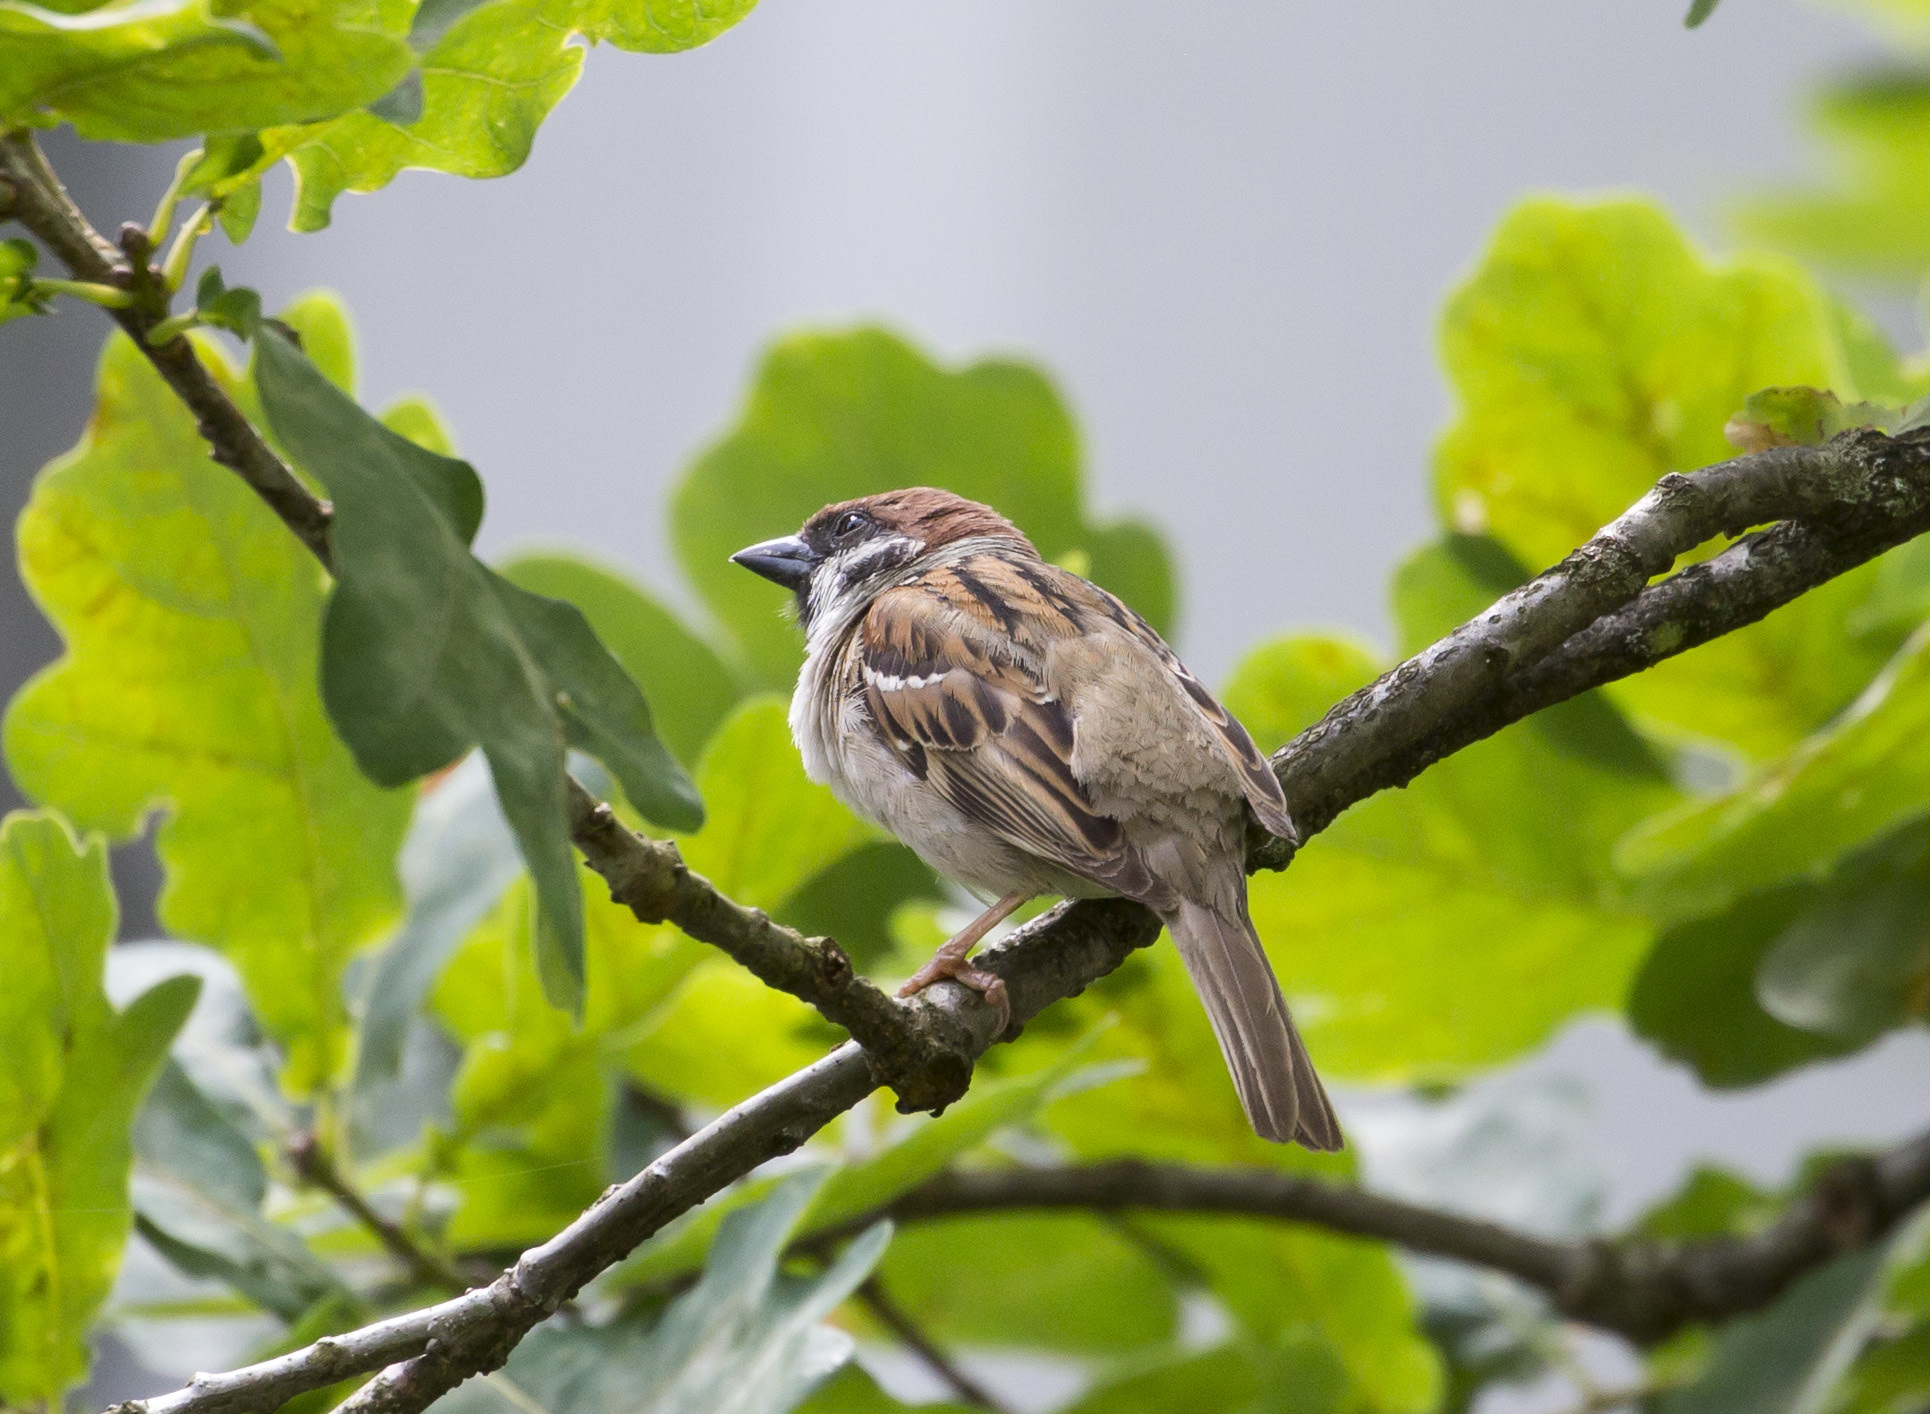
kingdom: Animalia
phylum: Chordata
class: Aves
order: Passeriformes
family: Passeridae
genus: Passer
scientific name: Passer montanus
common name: Eurasian tree sparrow
